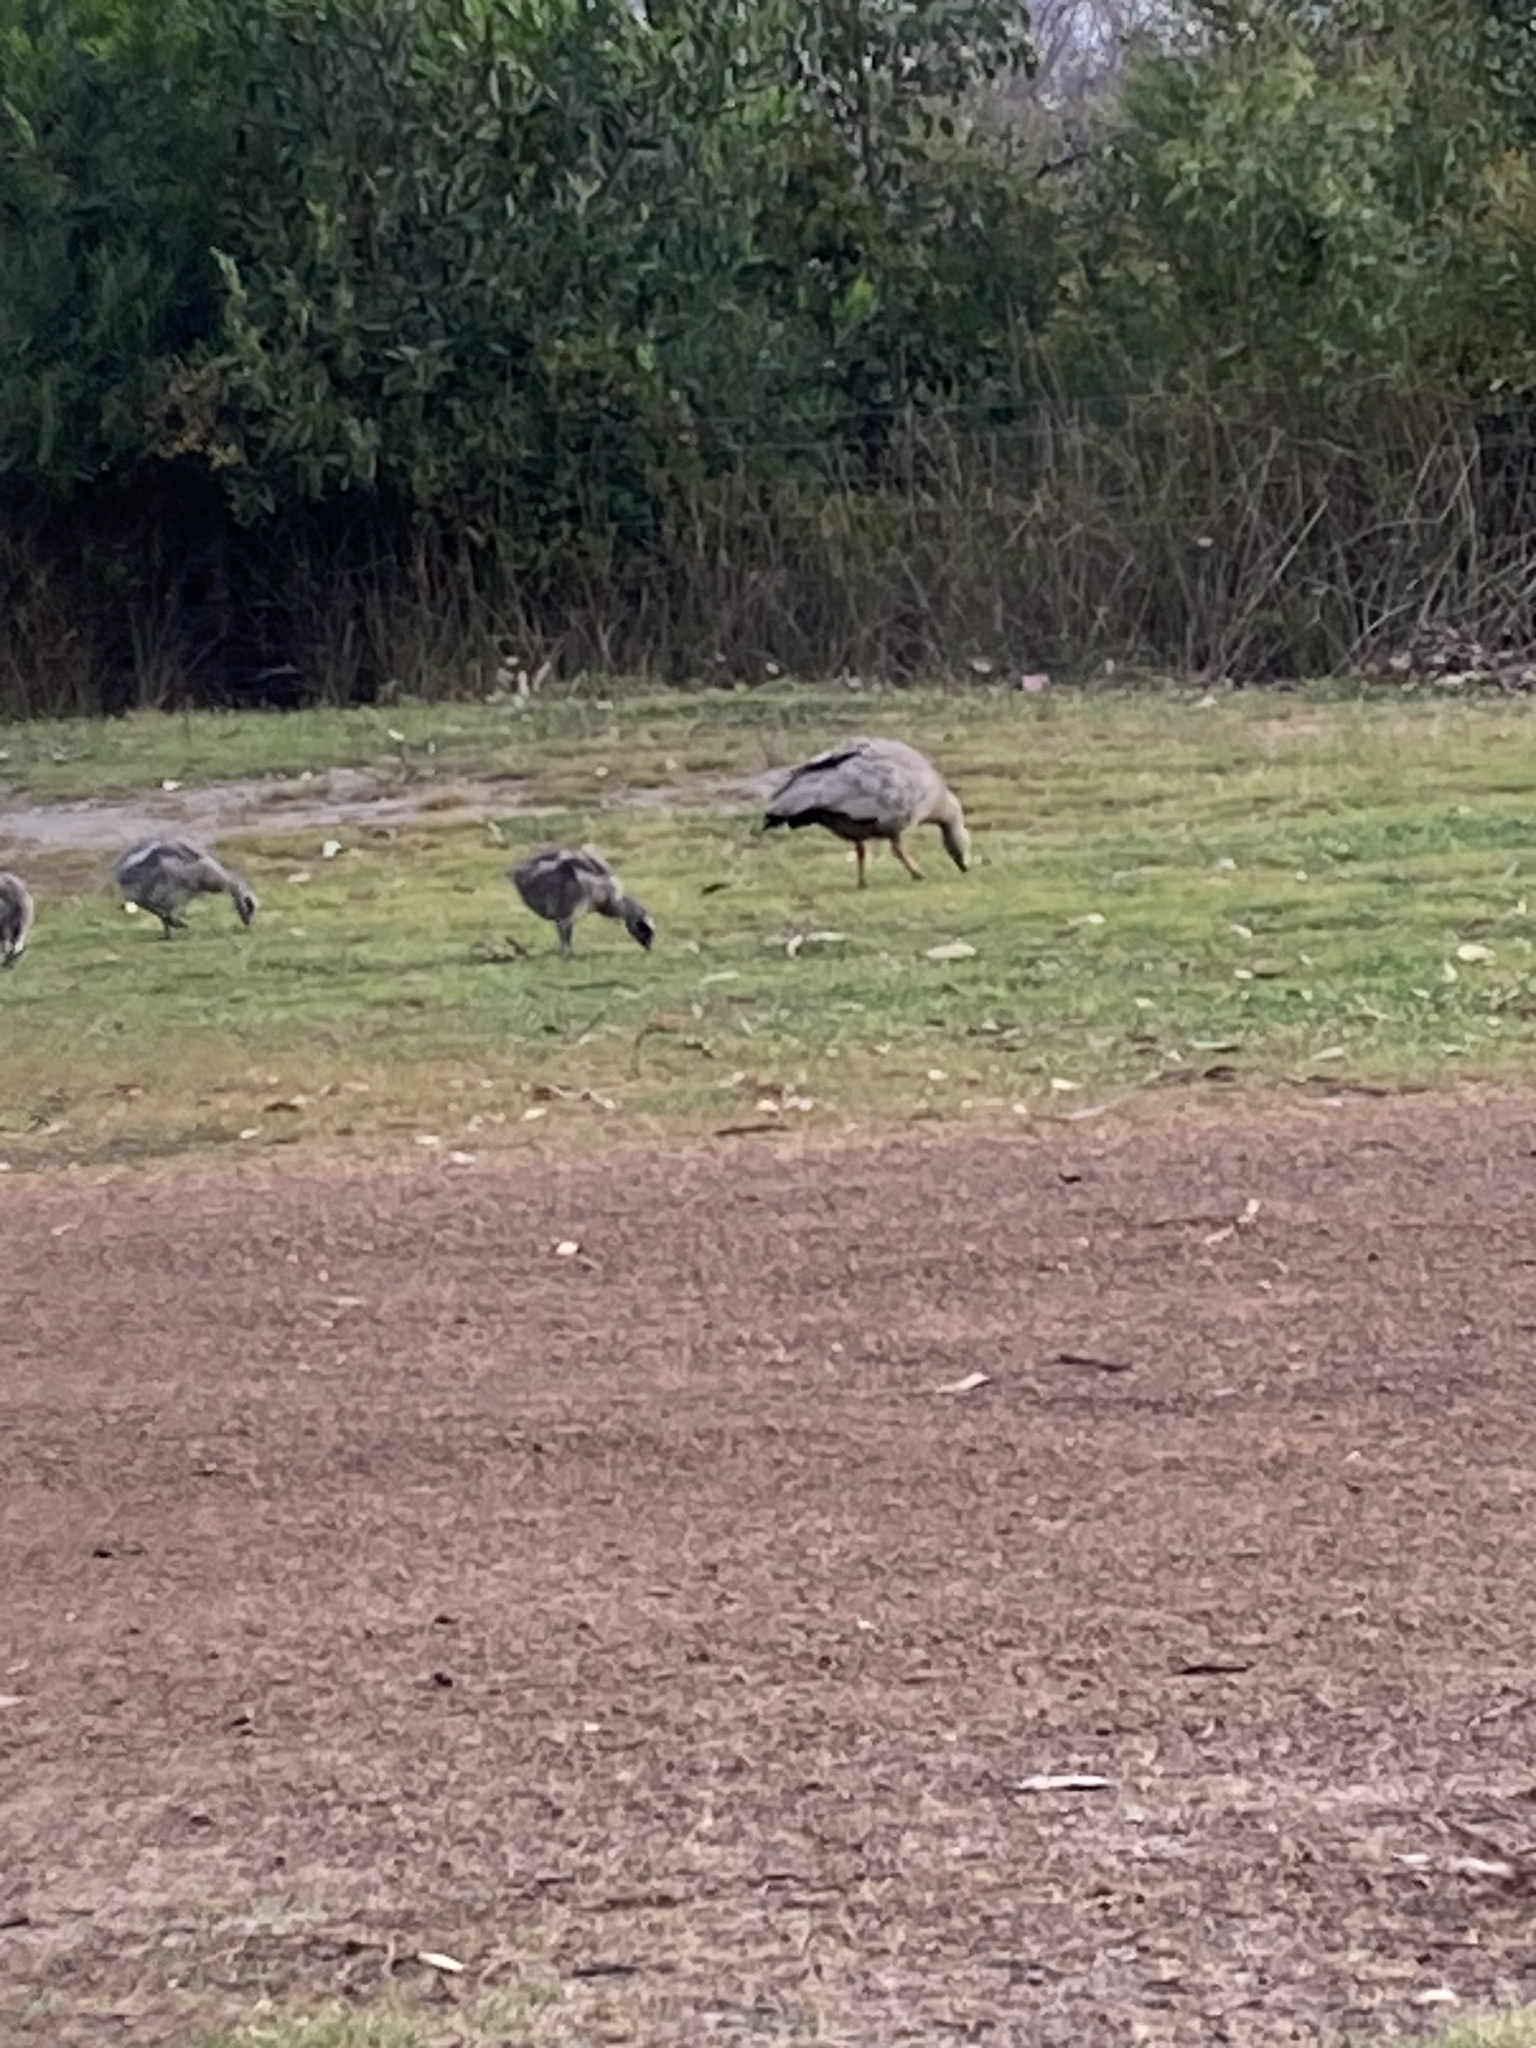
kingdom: Animalia
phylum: Chordata
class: Aves
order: Anseriformes
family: Anatidae
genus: Cereopsis
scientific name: Cereopsis novaehollandiae
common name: Cape barren goose
